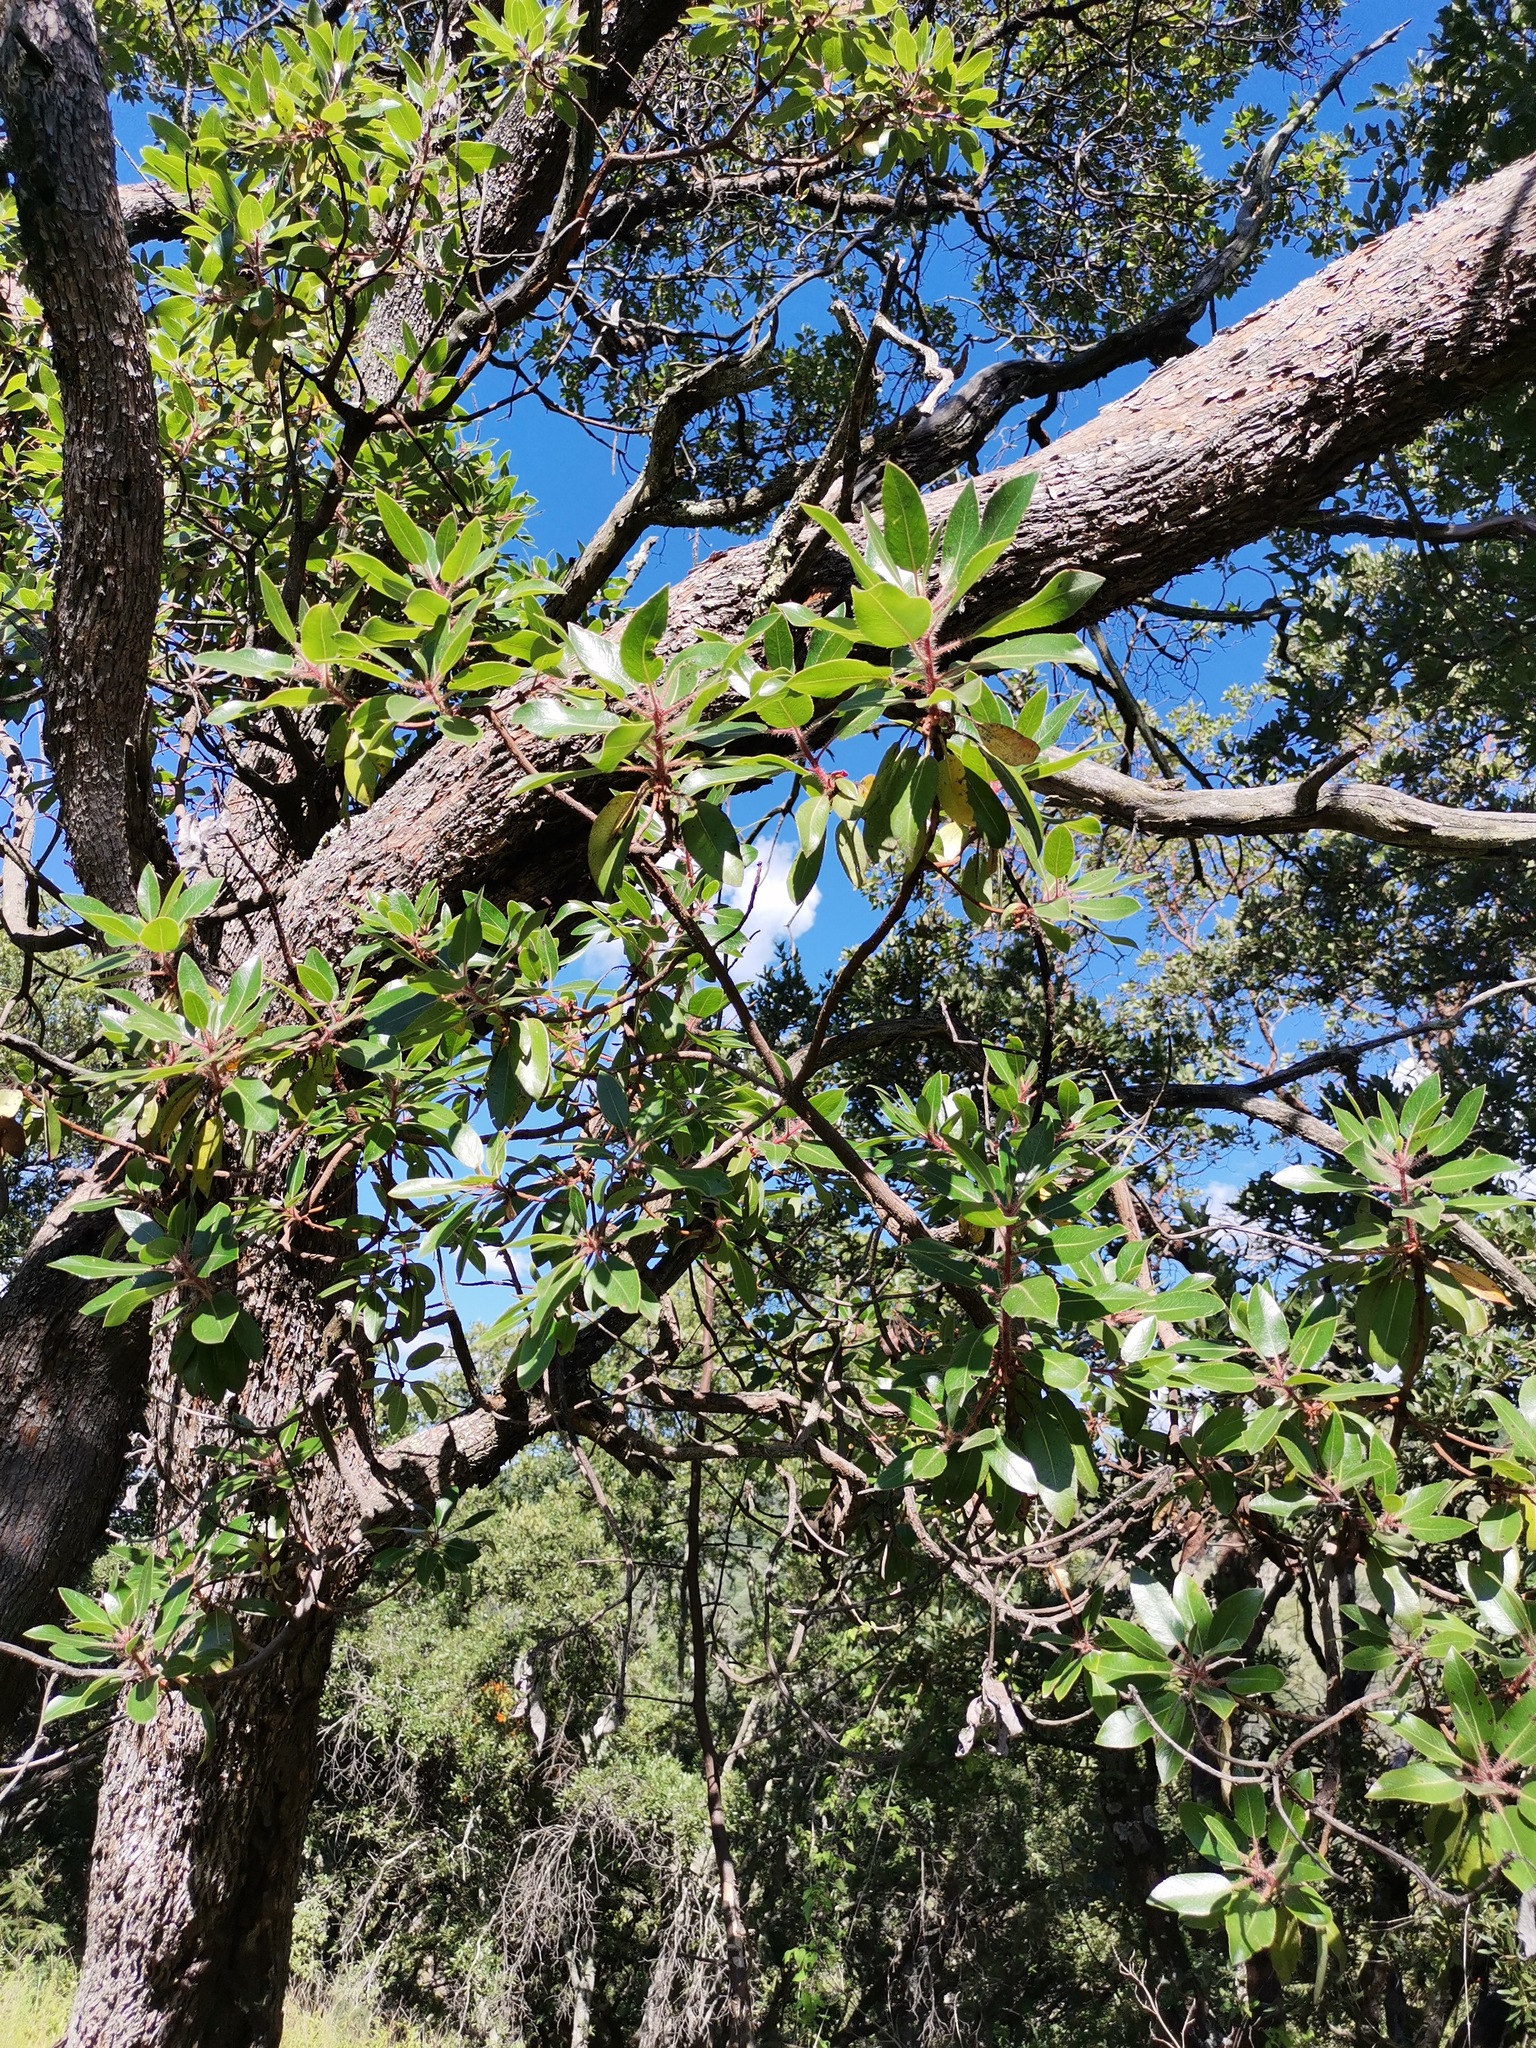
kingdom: Plantae
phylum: Tracheophyta
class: Magnoliopsida
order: Ericales
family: Ericaceae
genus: Arbutus
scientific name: Arbutus tessellata
